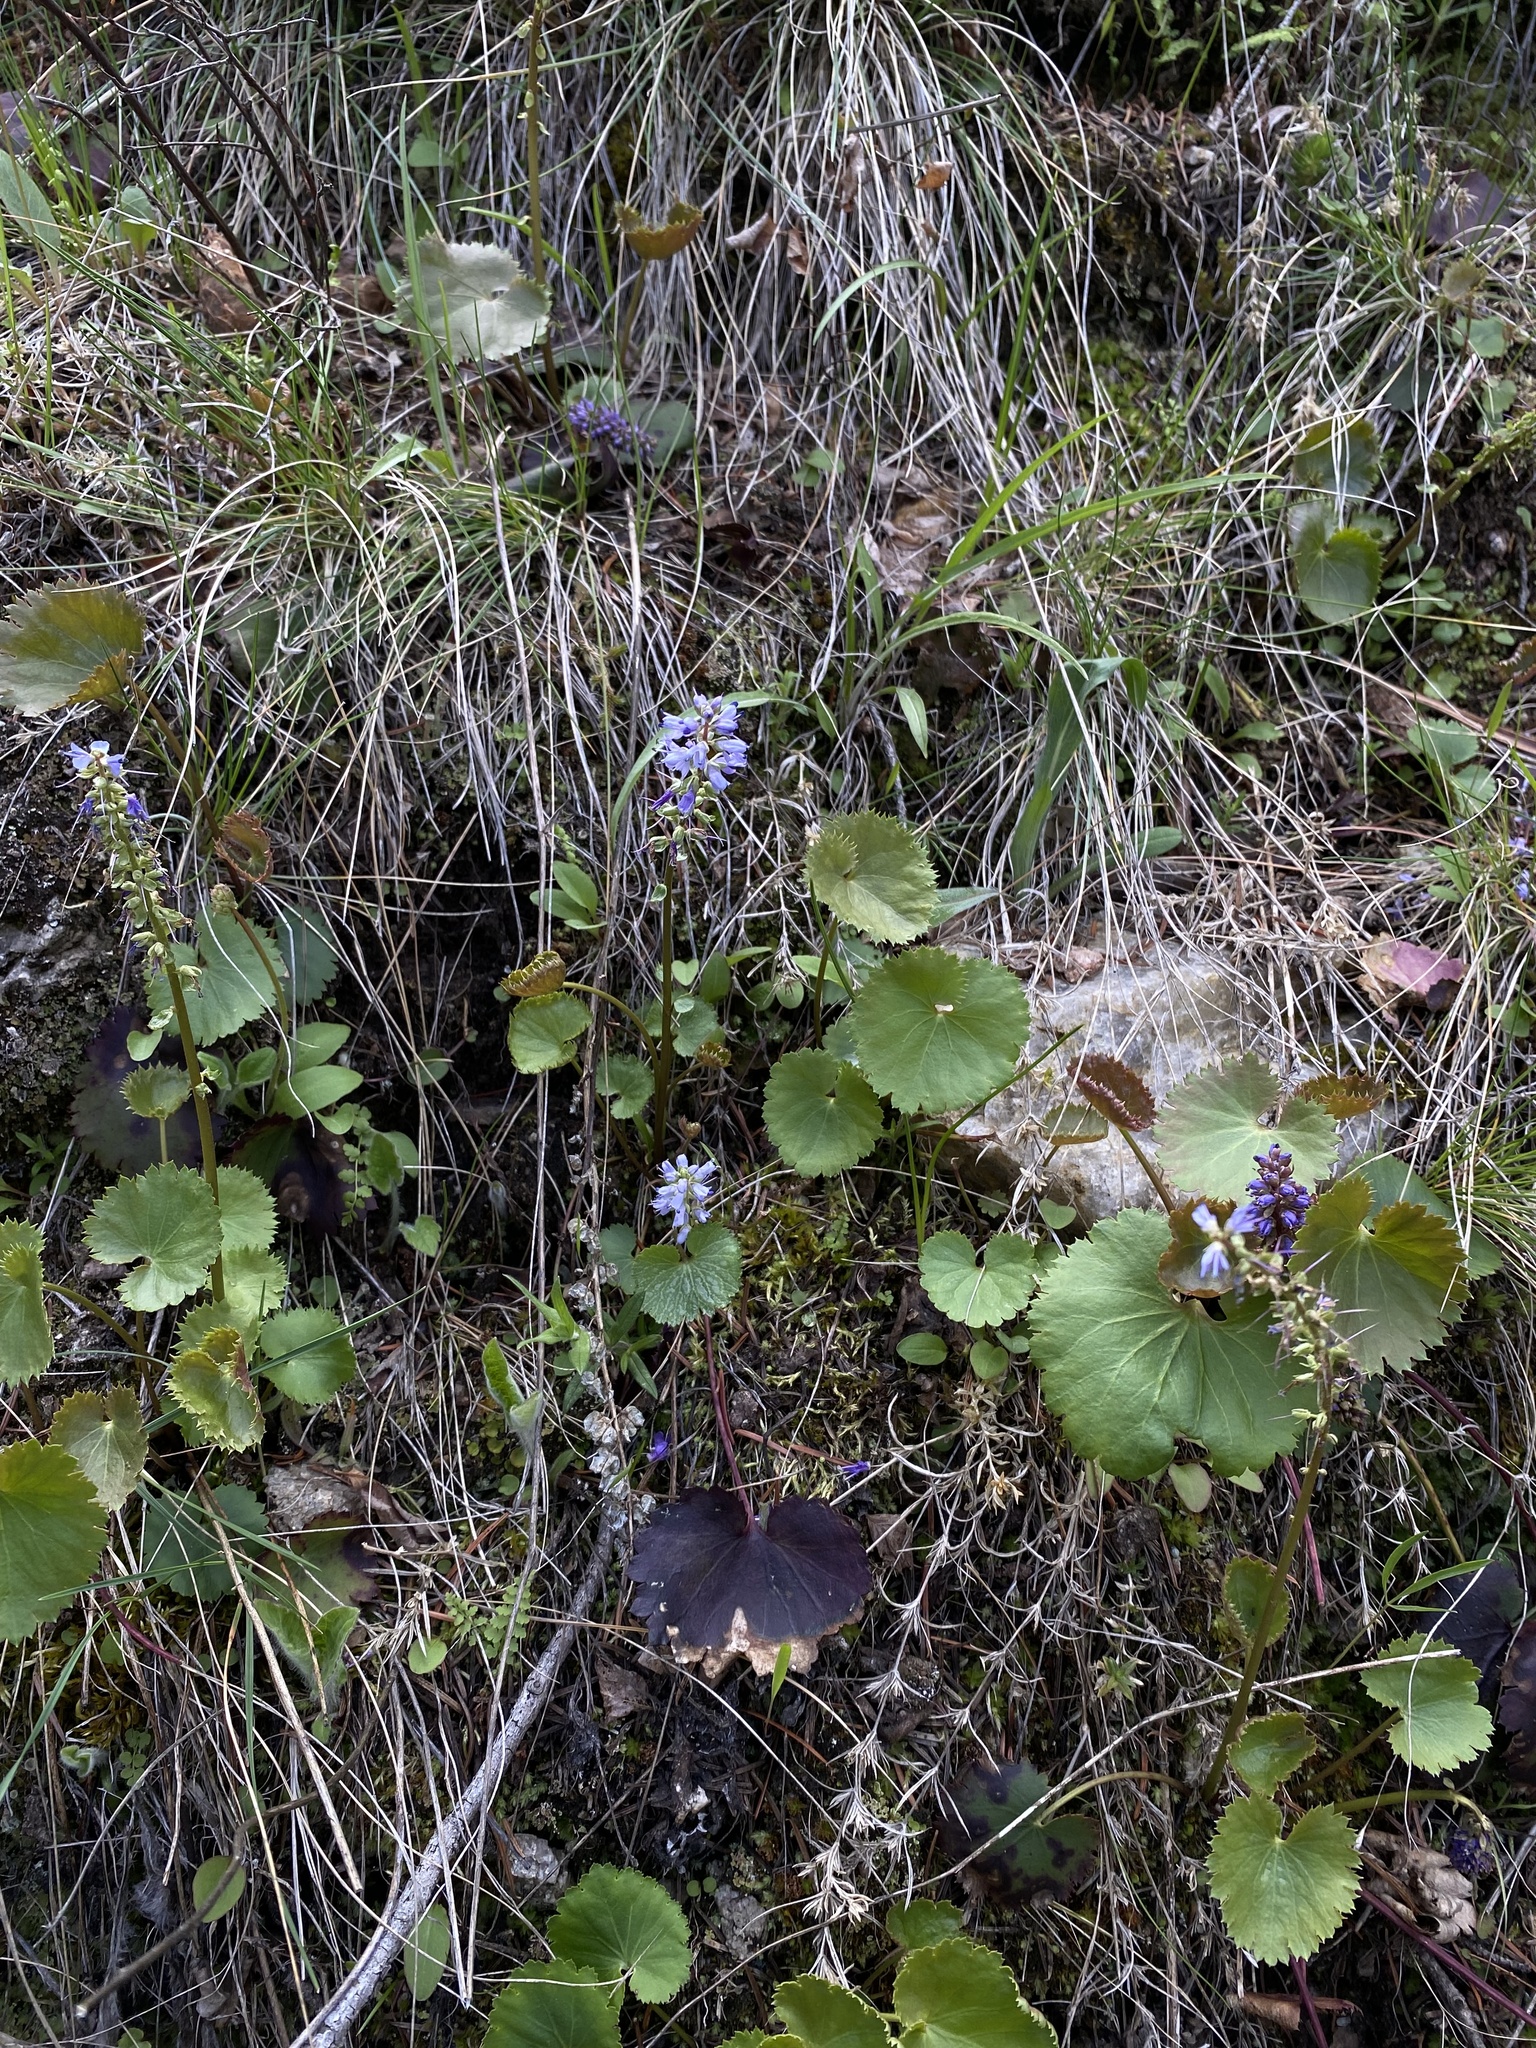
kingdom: Plantae
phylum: Tracheophyta
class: Magnoliopsida
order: Lamiales
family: Plantaginaceae
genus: Synthyris
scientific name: Synthyris missurica
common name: Kitten-tails
